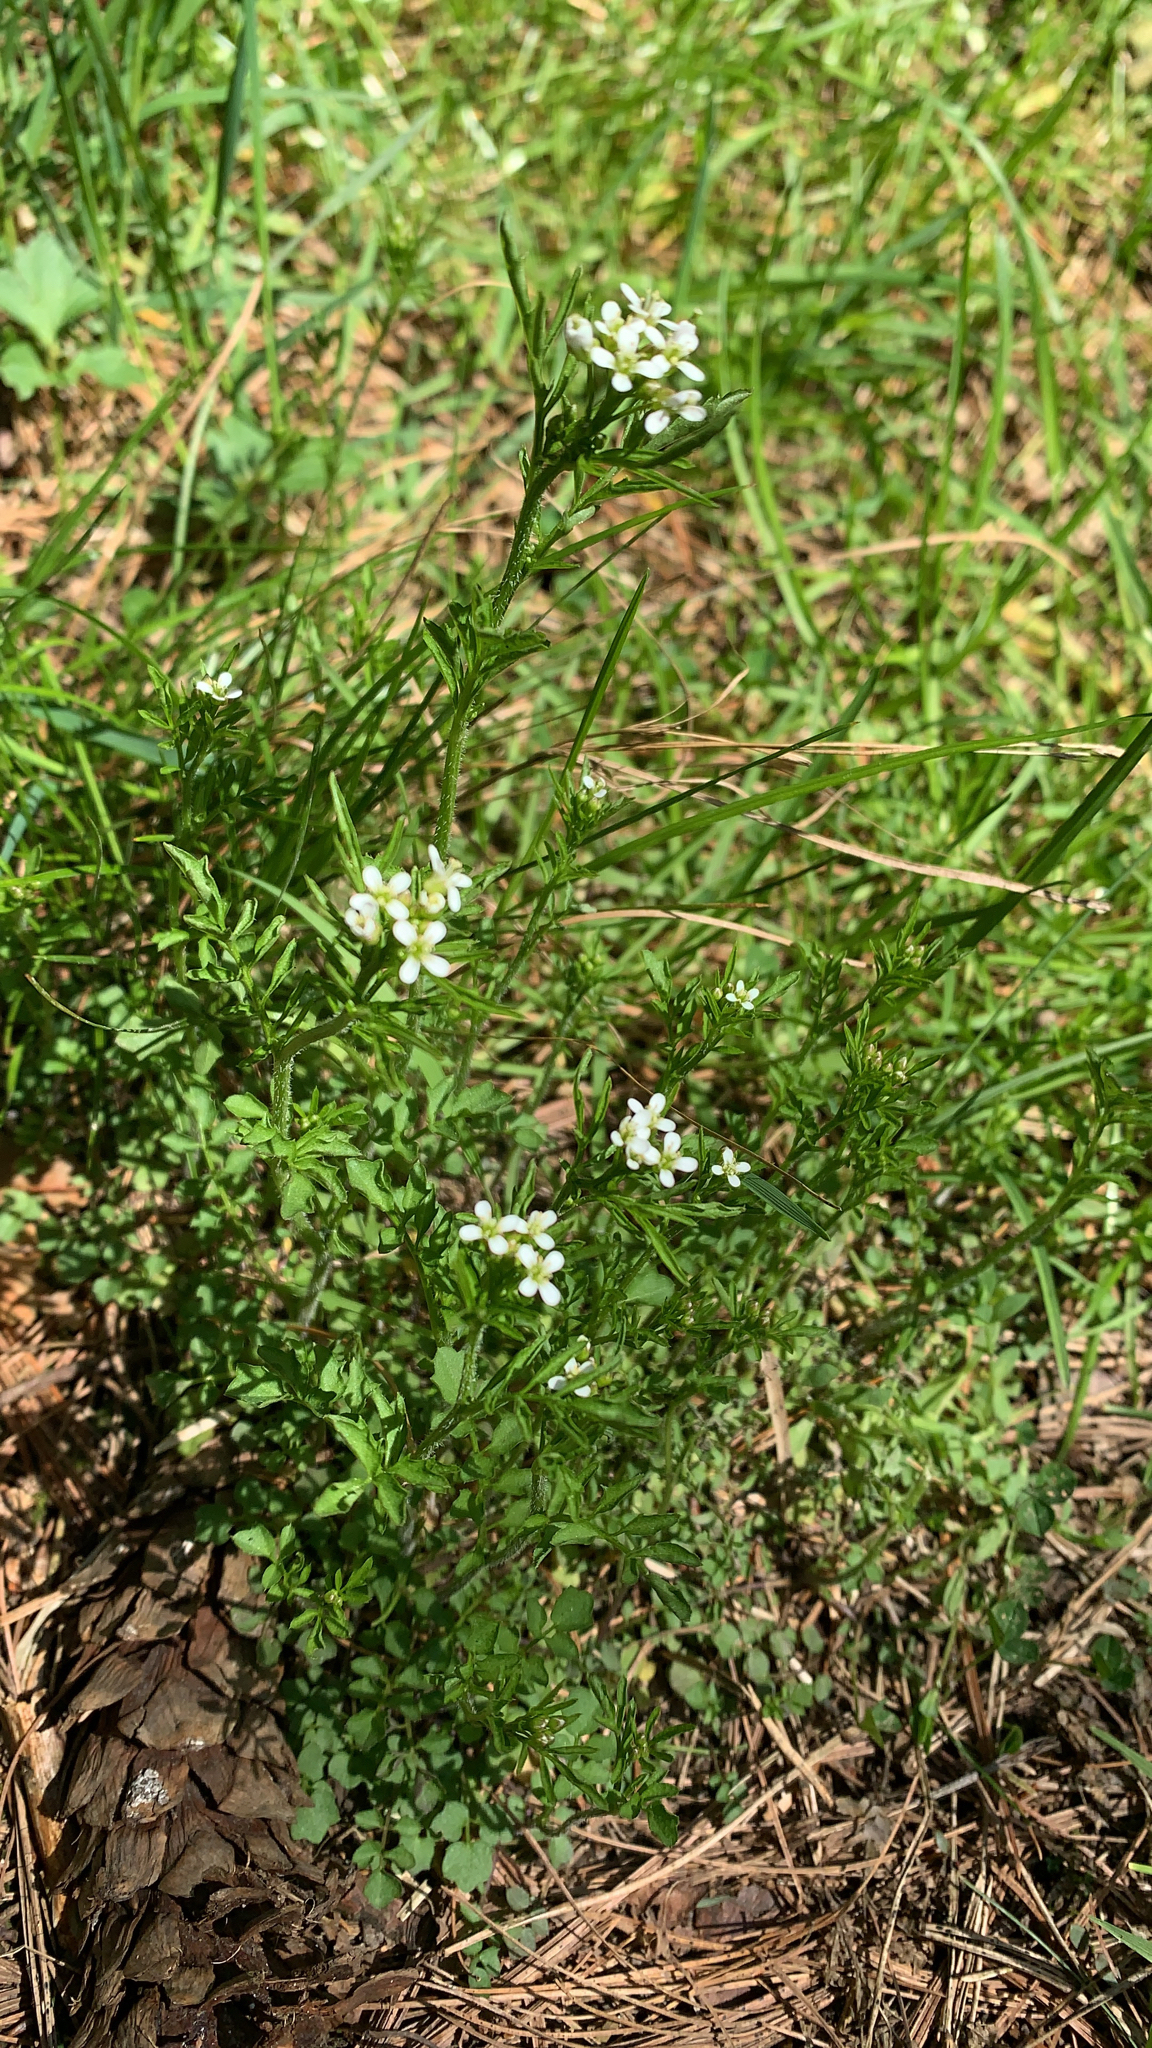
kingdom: Plantae
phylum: Tracheophyta
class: Magnoliopsida
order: Brassicales
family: Brassicaceae
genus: Cardamine
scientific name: Cardamine flexuosa
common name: Woodland bittercress
